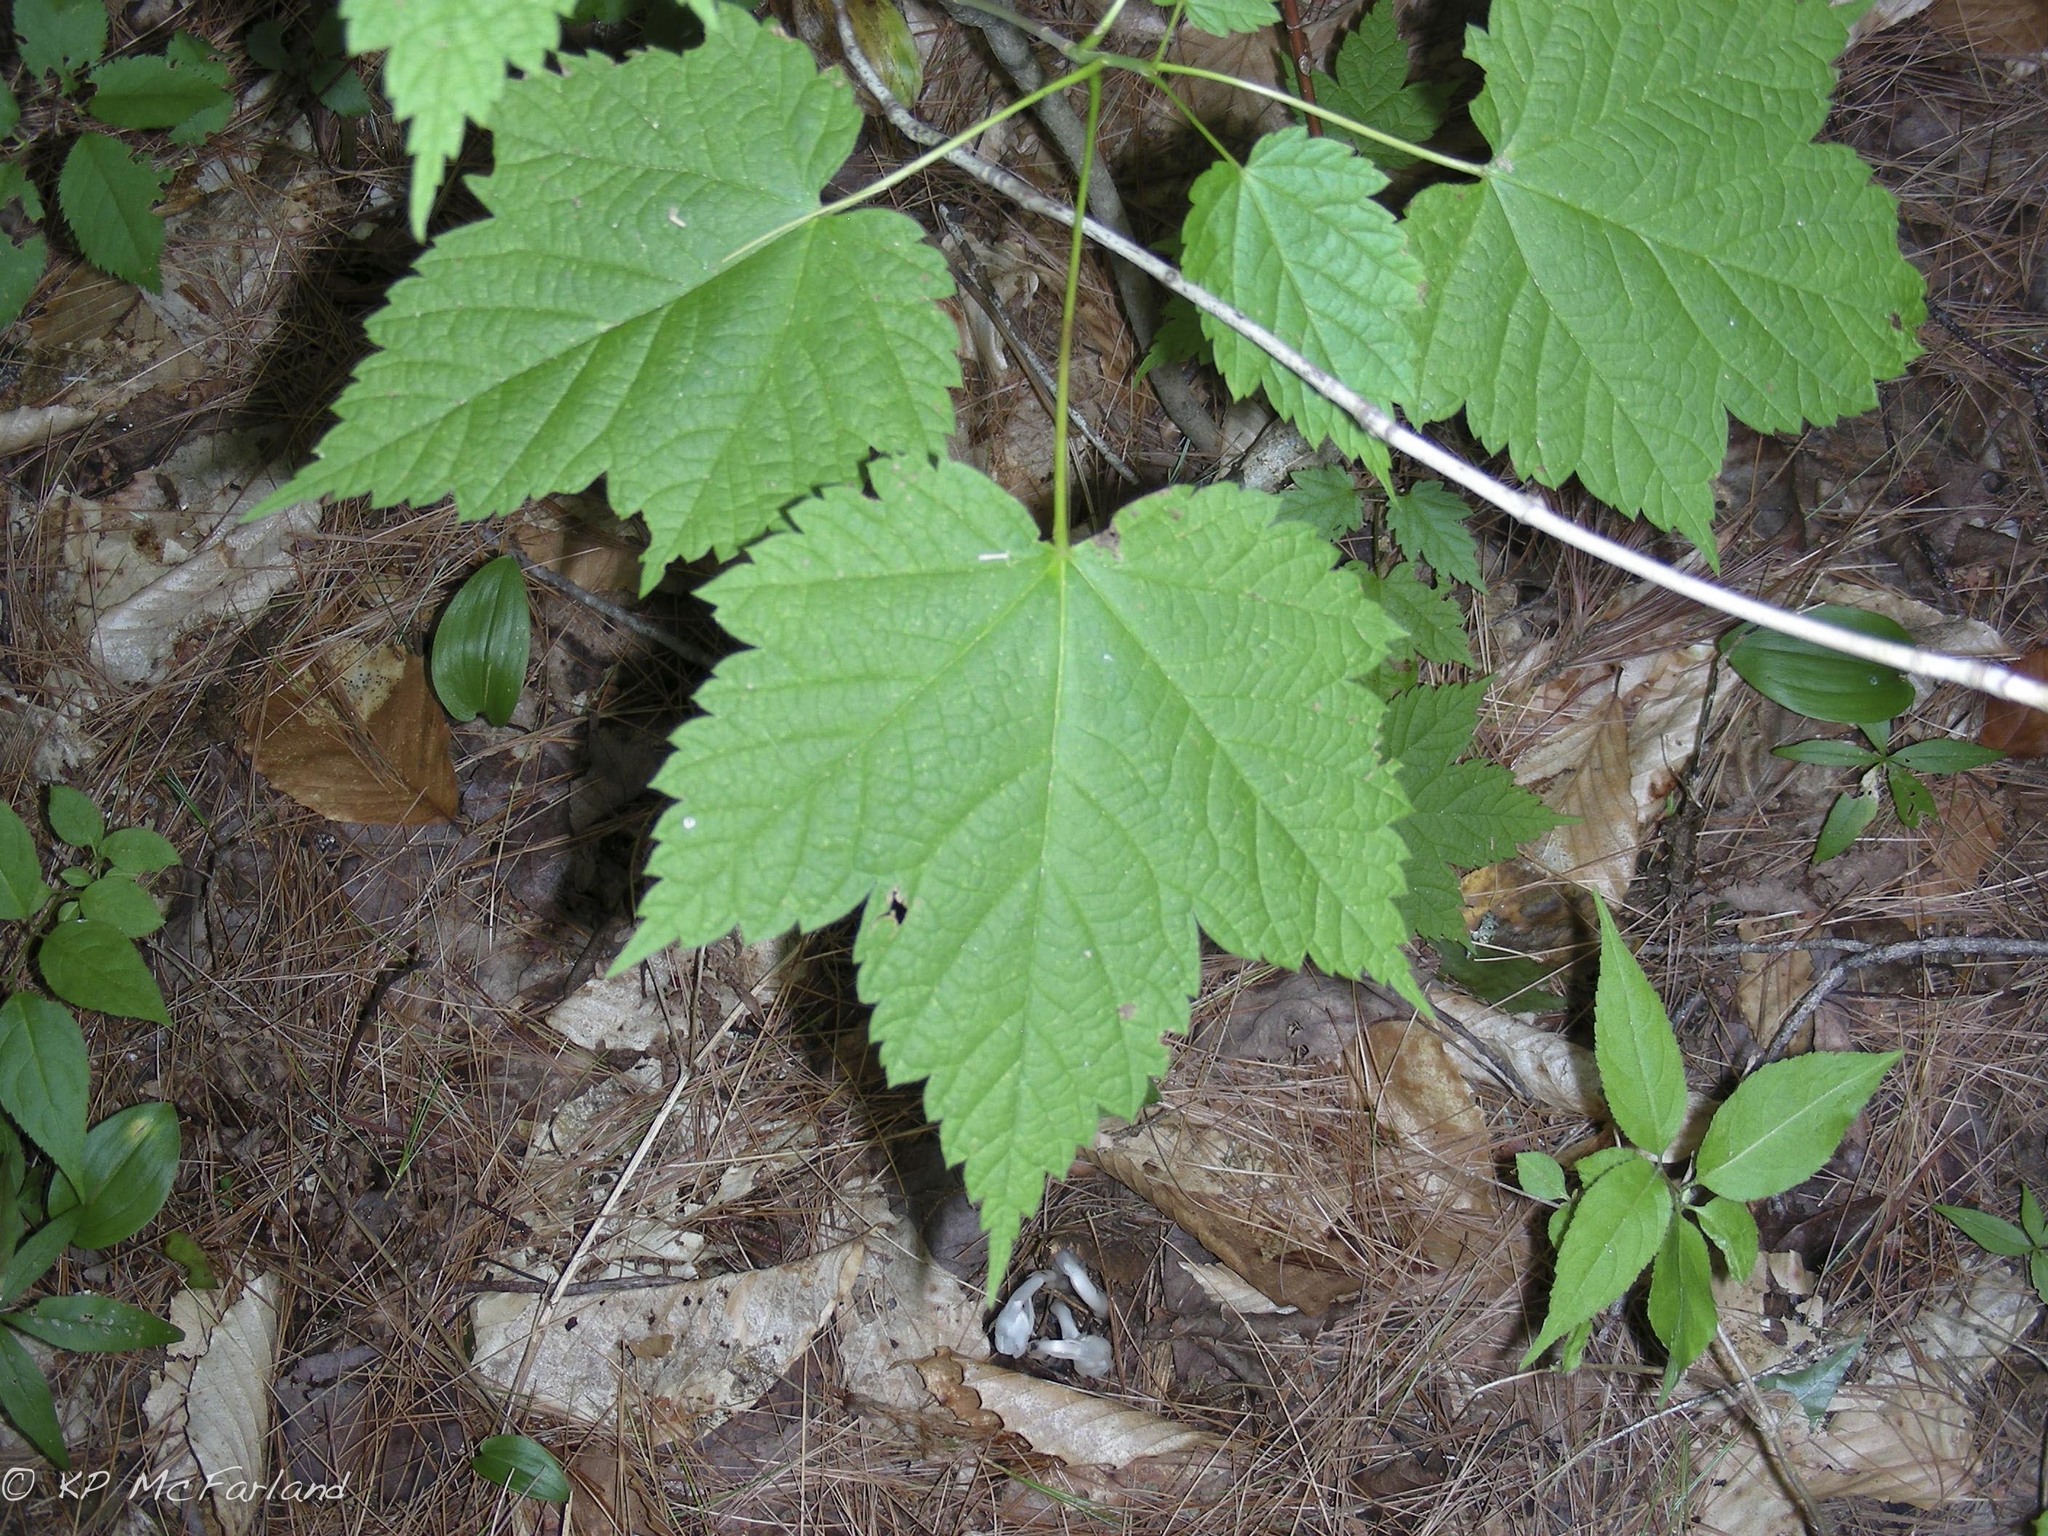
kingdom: Plantae
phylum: Tracheophyta
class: Magnoliopsida
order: Sapindales
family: Sapindaceae
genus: Acer
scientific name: Acer spicatum
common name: Mountain maple
